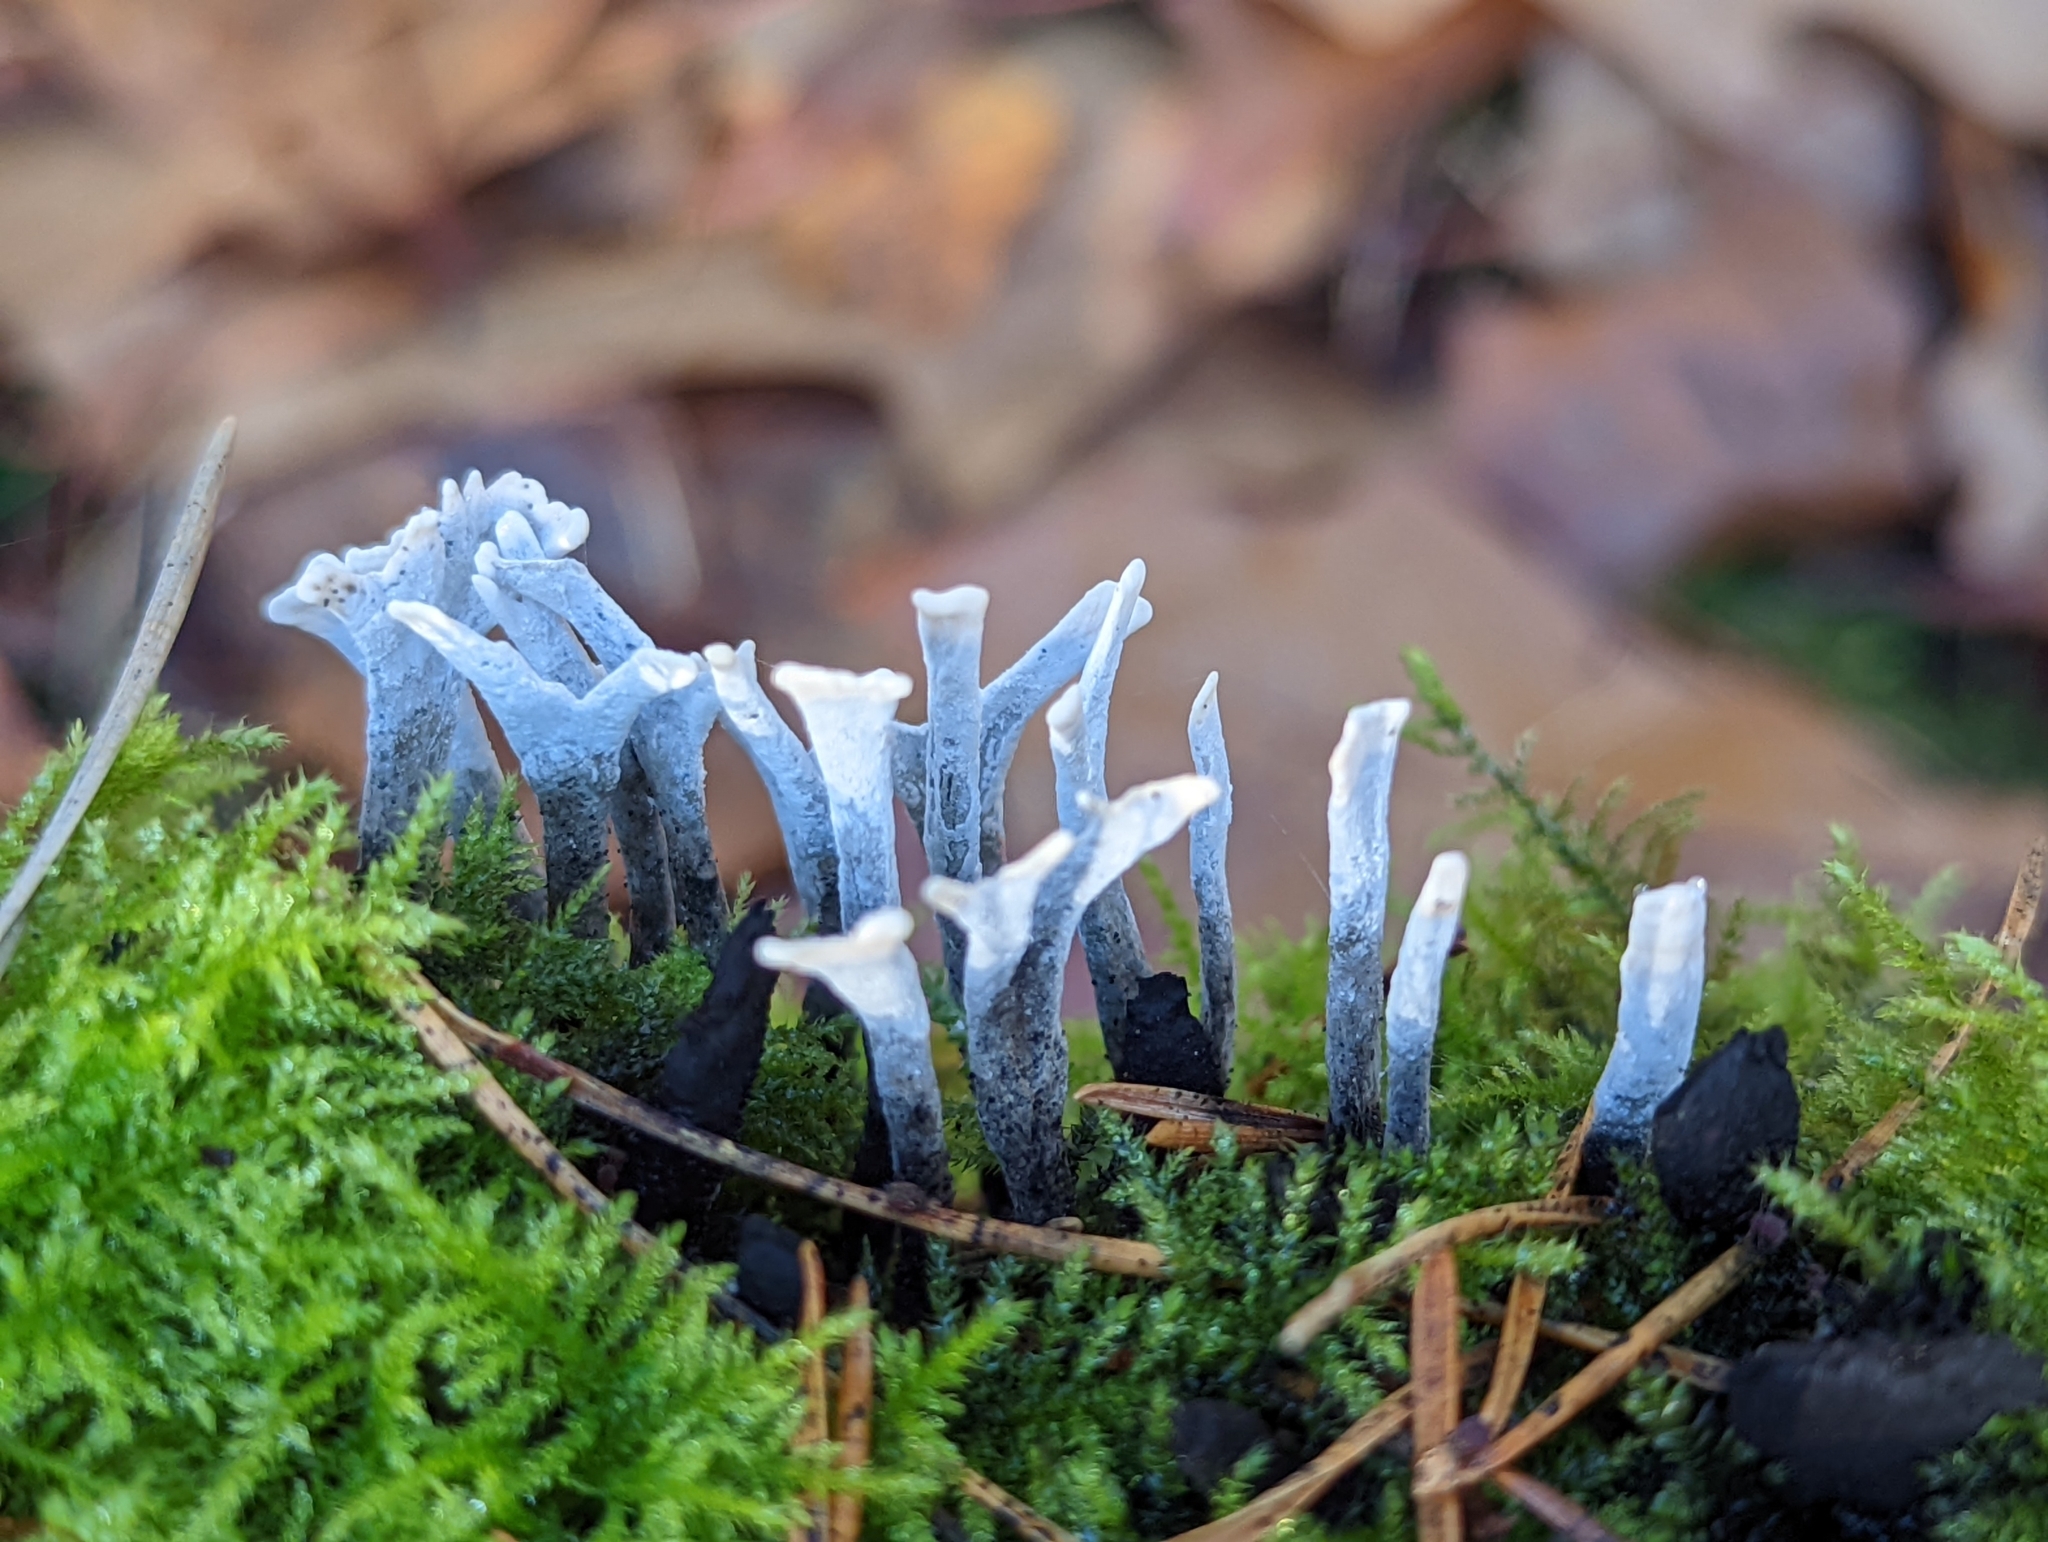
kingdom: Fungi
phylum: Ascomycota
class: Sordariomycetes
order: Xylariales
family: Xylariaceae
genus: Xylaria
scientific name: Xylaria hypoxylon
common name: Candle-snuff fungus
